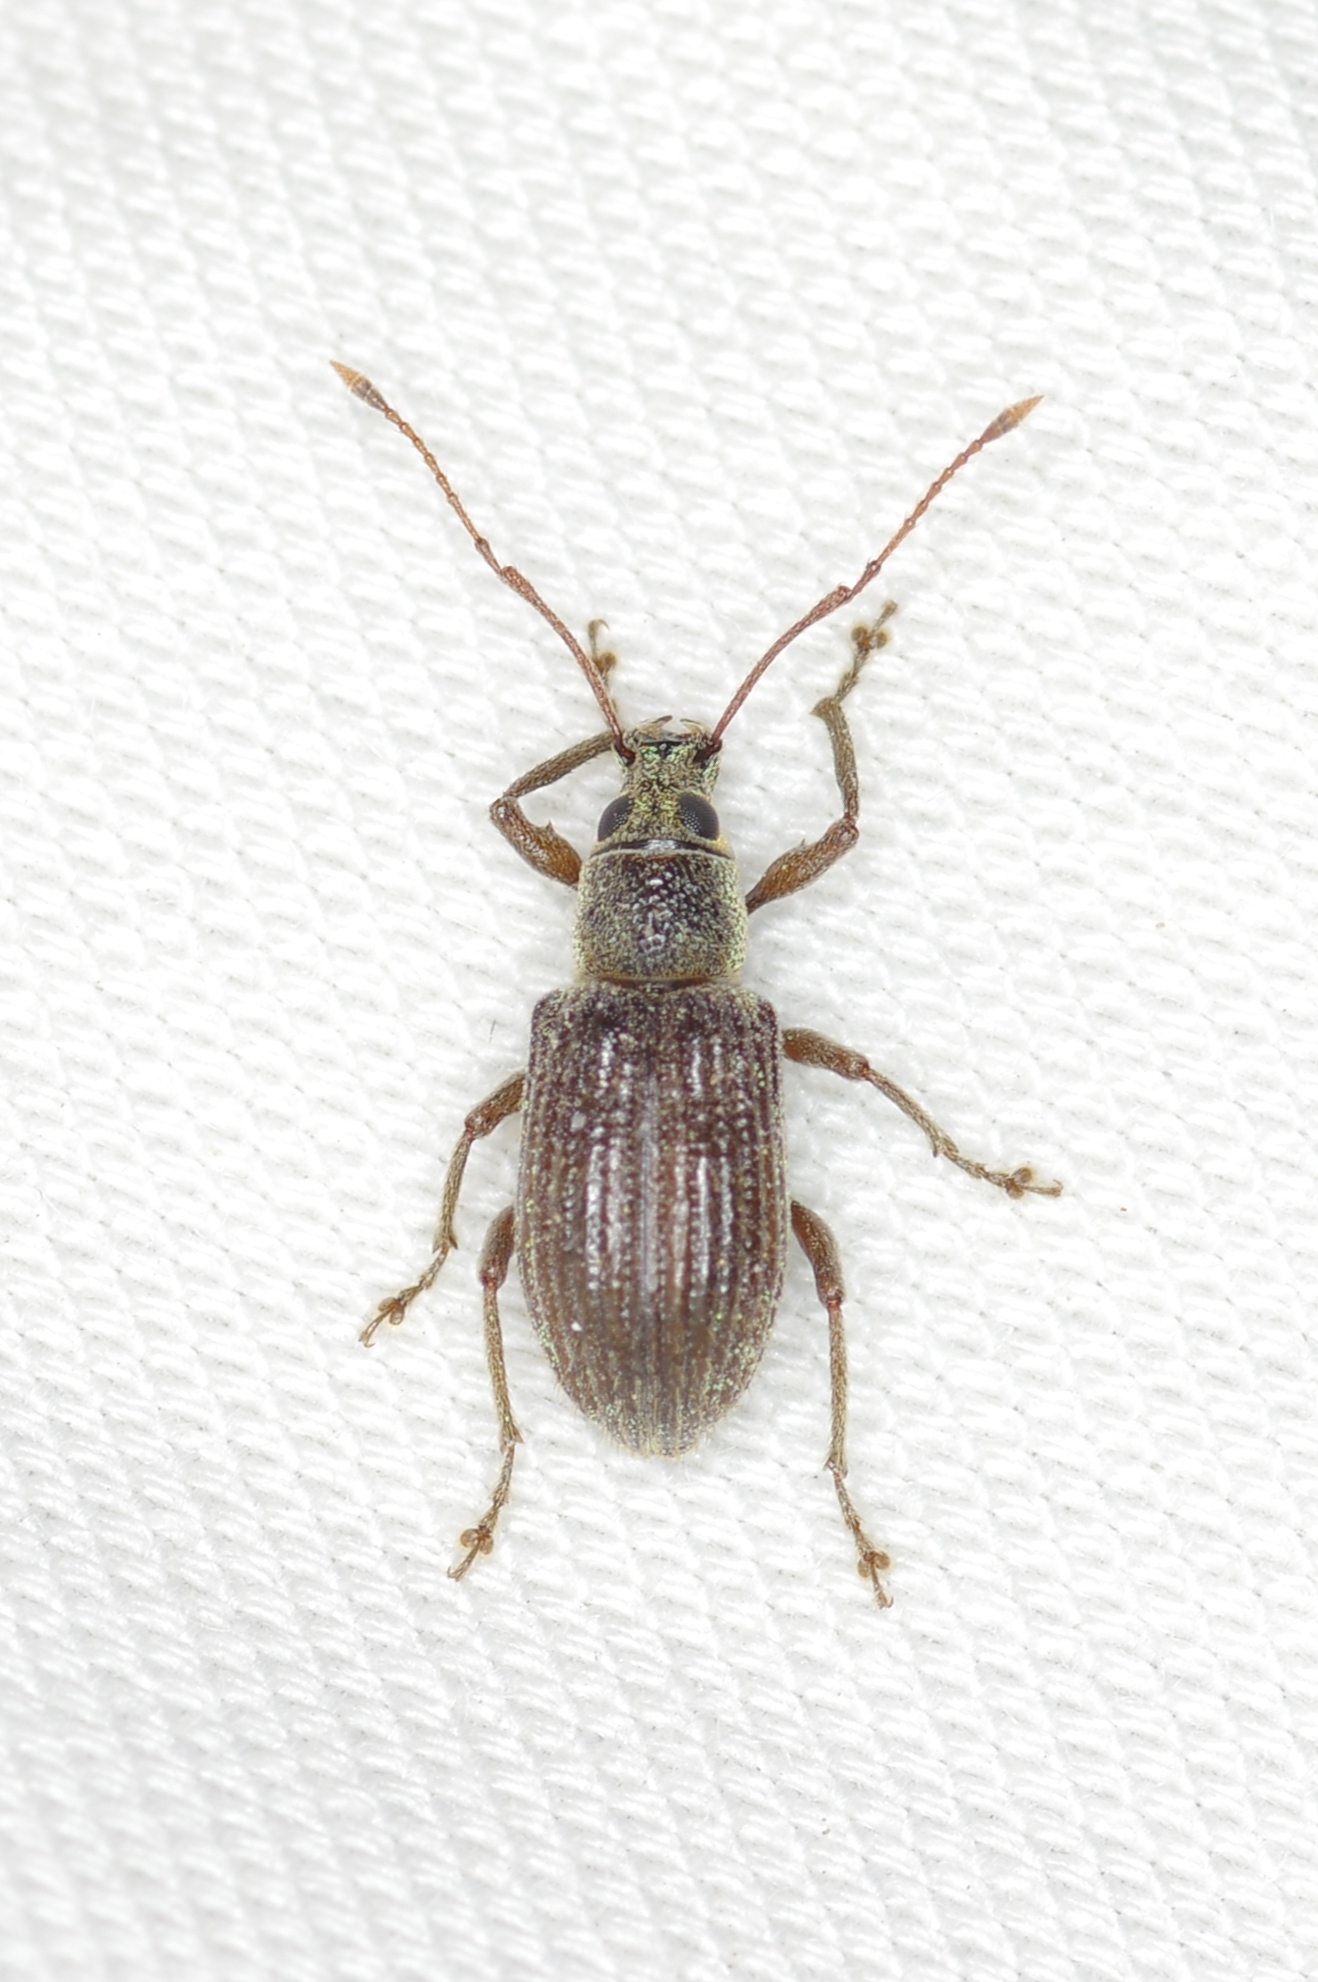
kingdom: Animalia
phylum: Arthropoda
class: Insecta
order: Coleoptera
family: Curculionidae
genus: Cyrtepistomus
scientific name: Cyrtepistomus castaneus
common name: Weevil
